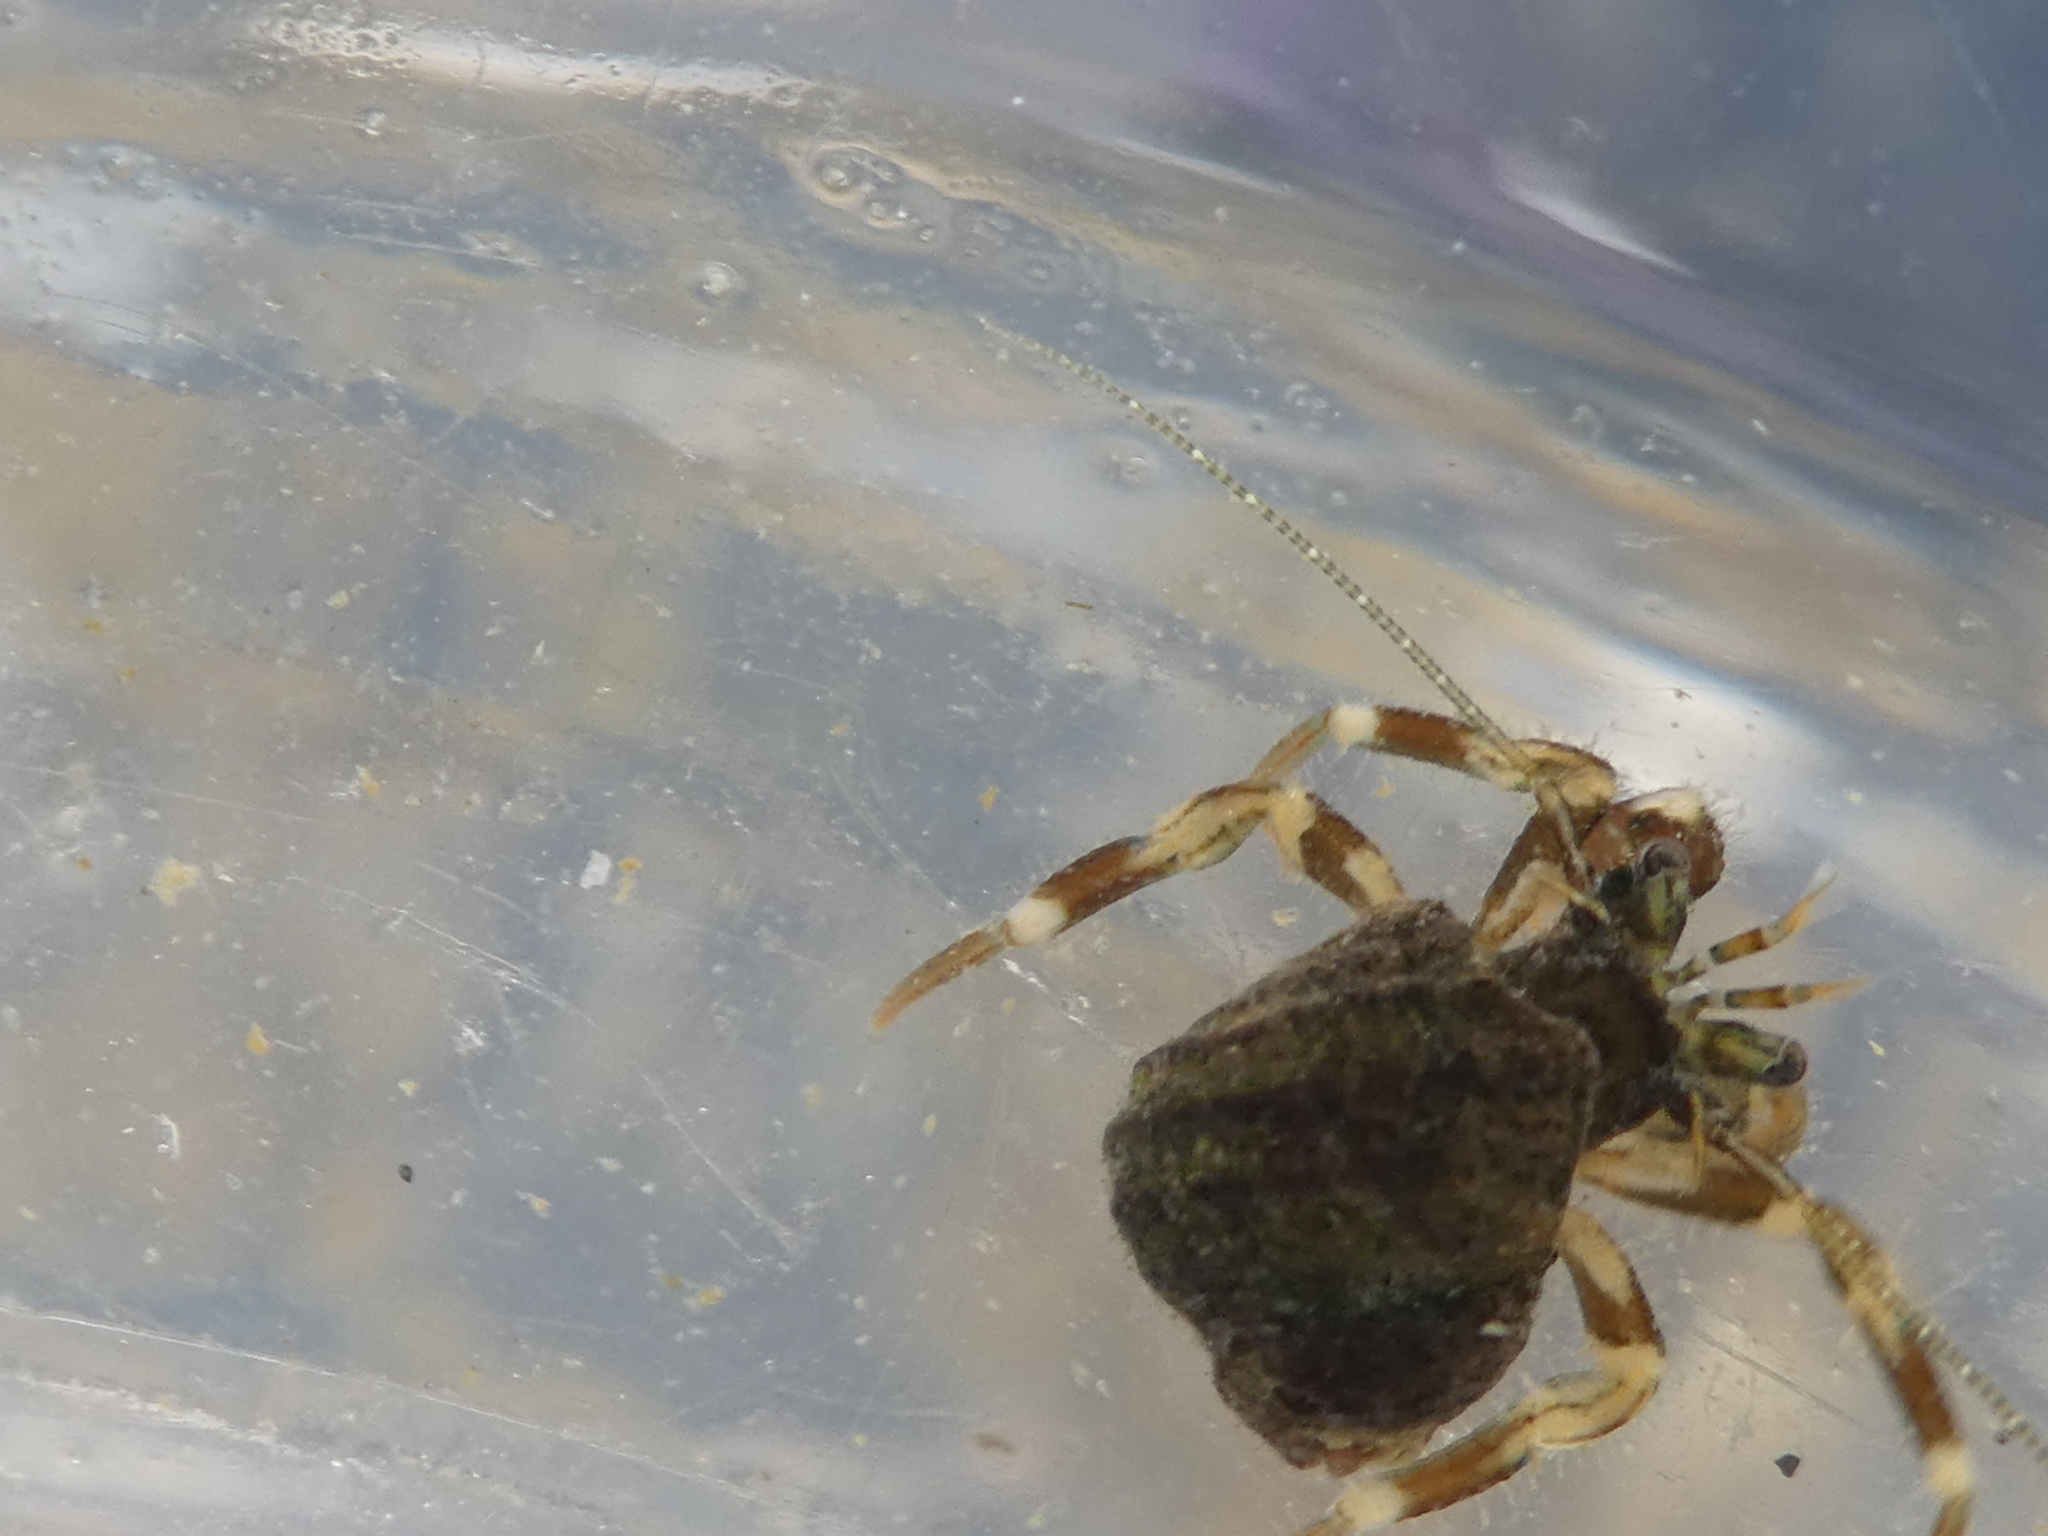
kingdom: Animalia
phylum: Arthropoda
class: Malacostraca
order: Decapoda
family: Paguridae
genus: Pagurus
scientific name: Pagurus hirsutiusculus
